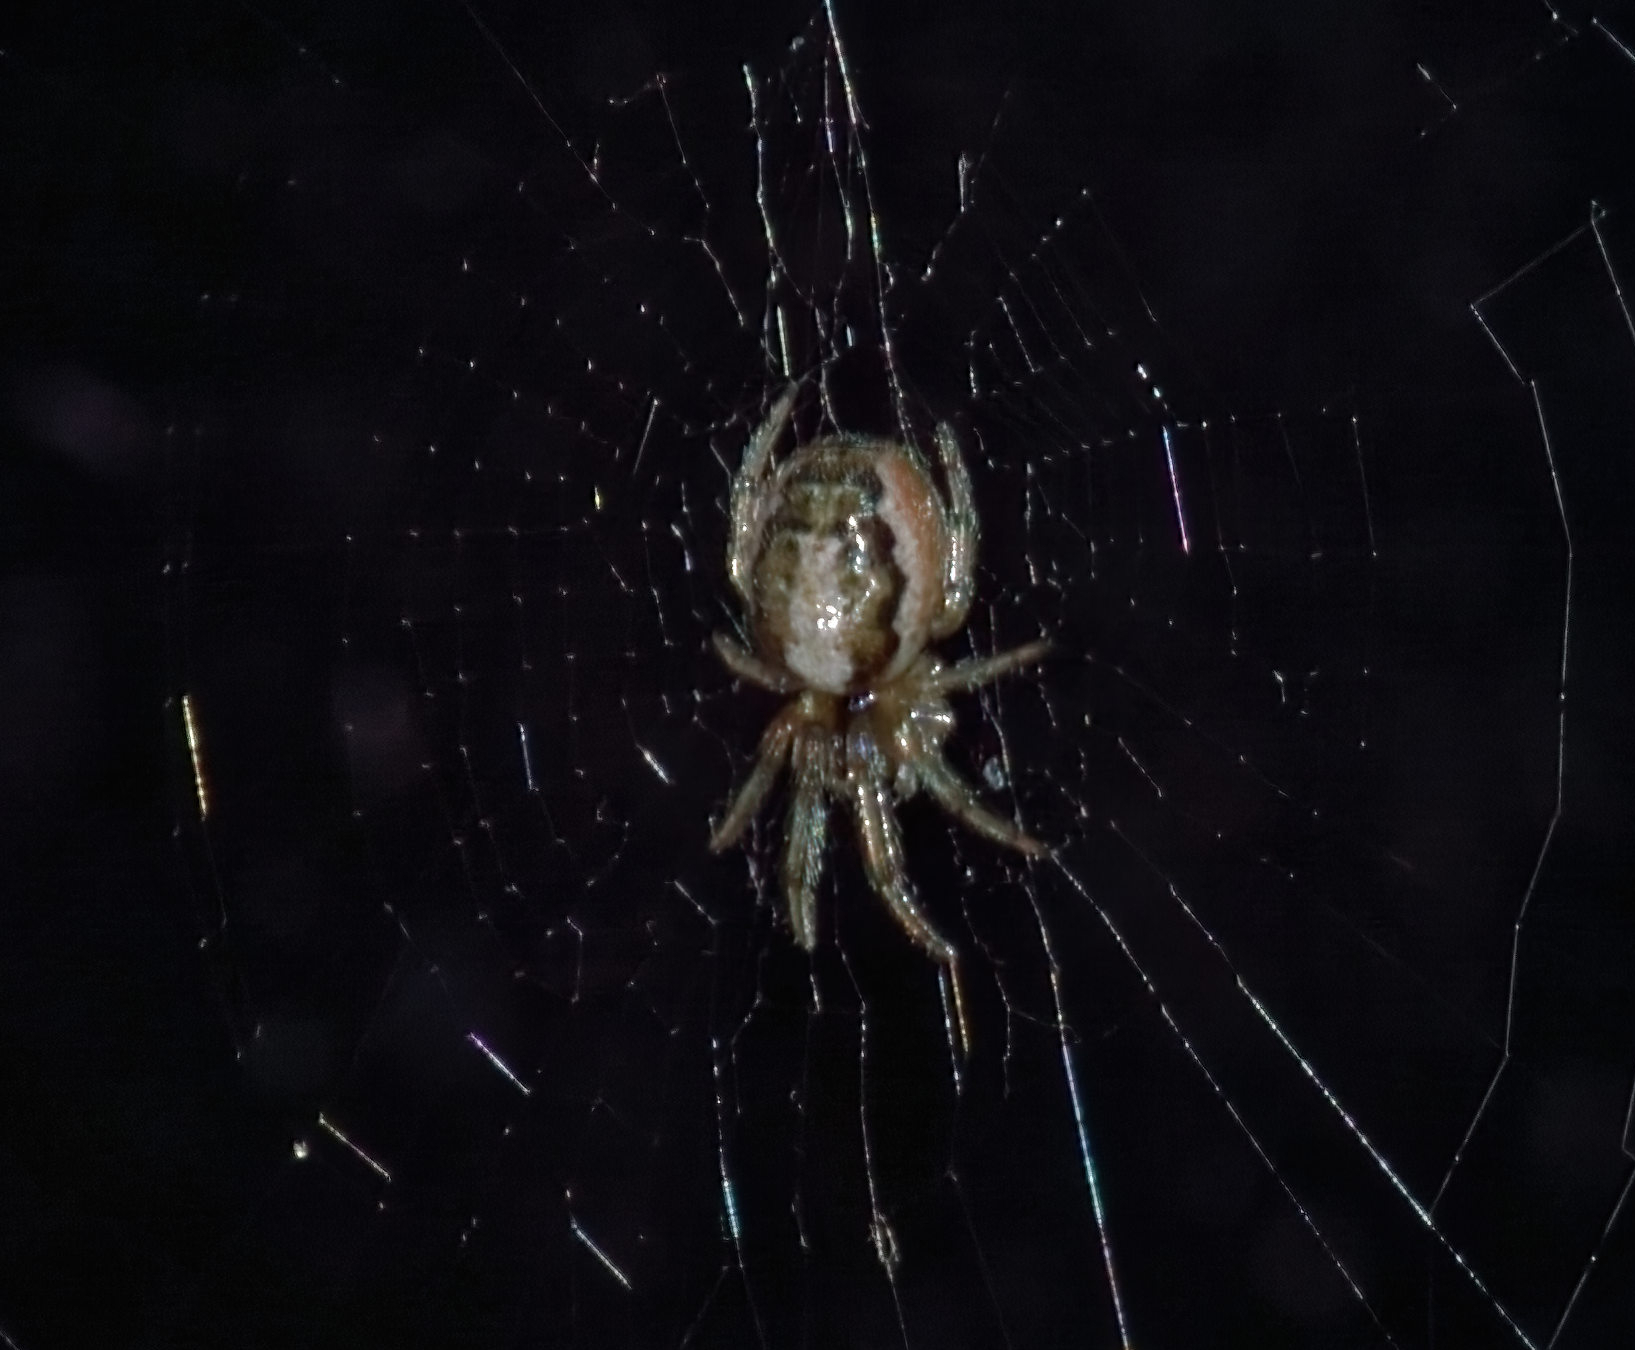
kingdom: Animalia
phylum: Arthropoda
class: Arachnida
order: Araneae
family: Araneidae
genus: Zygiella
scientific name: Zygiella x-notata
